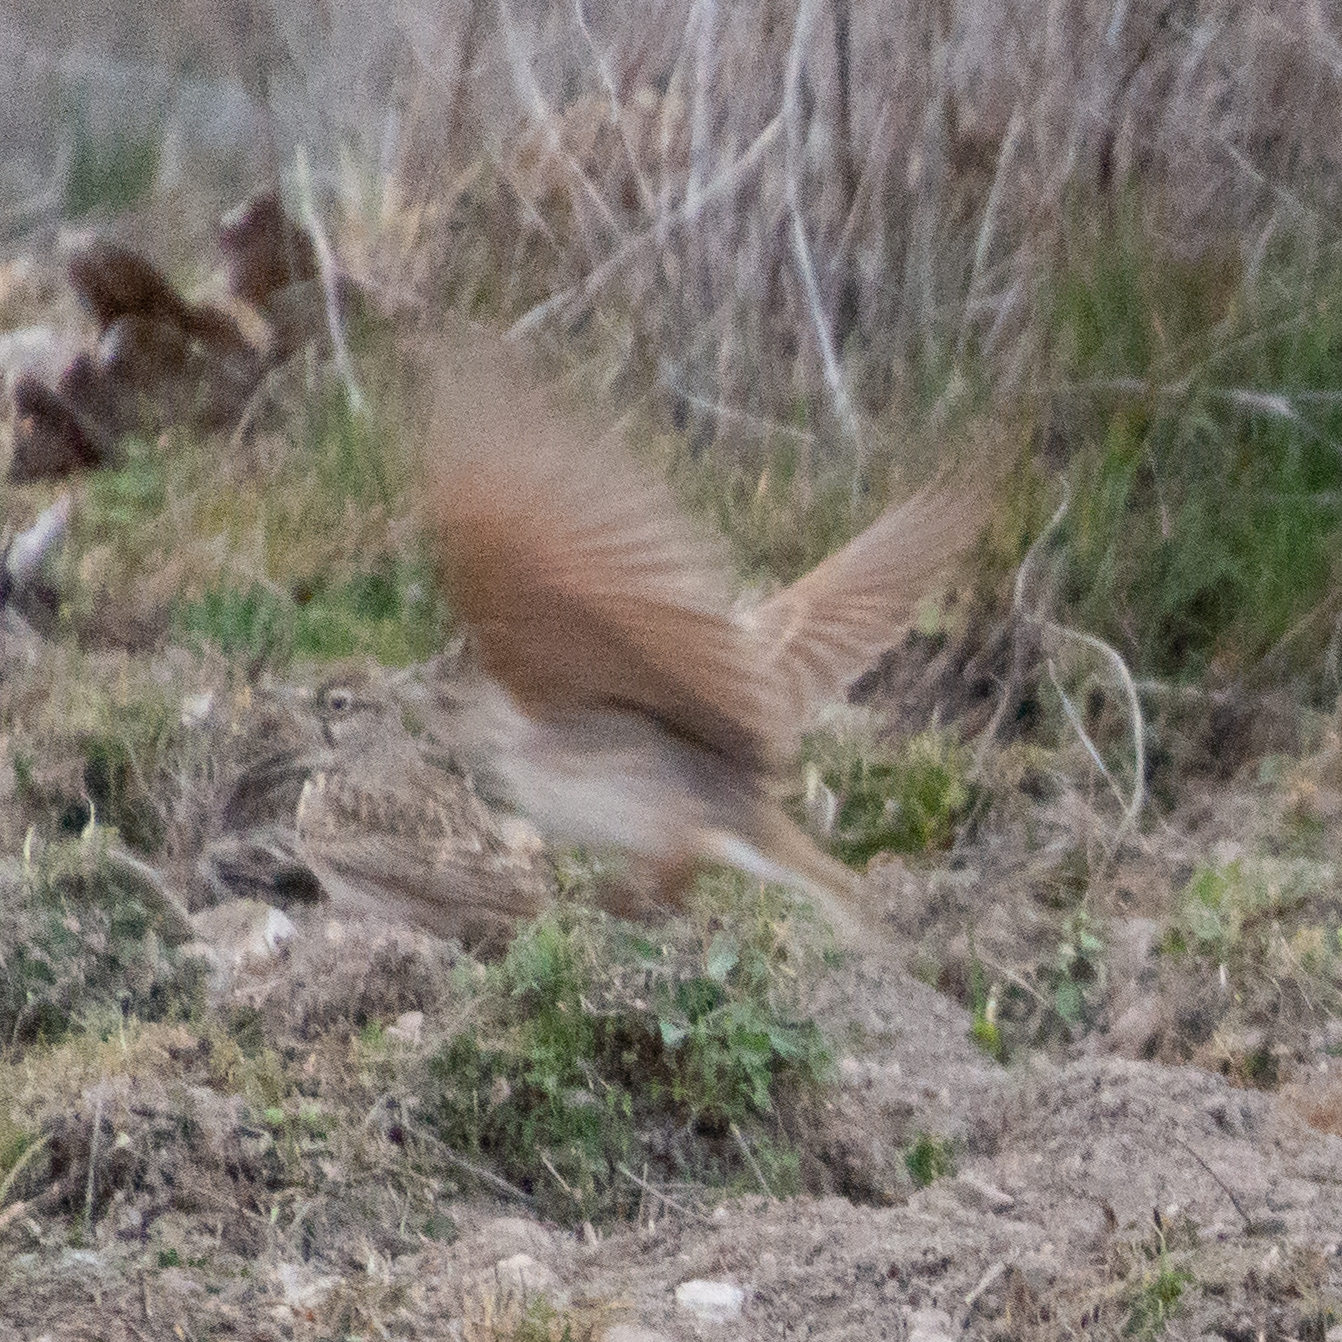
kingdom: Animalia
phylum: Chordata
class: Aves
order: Passeriformes
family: Alaudidae
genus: Galerida
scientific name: Galerida cristata
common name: Crested lark
